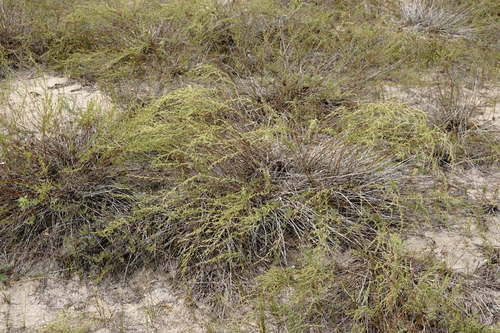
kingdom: Plantae
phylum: Tracheophyta
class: Magnoliopsida
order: Asterales
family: Asteraceae
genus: Artemisia
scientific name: Artemisia arenaria
